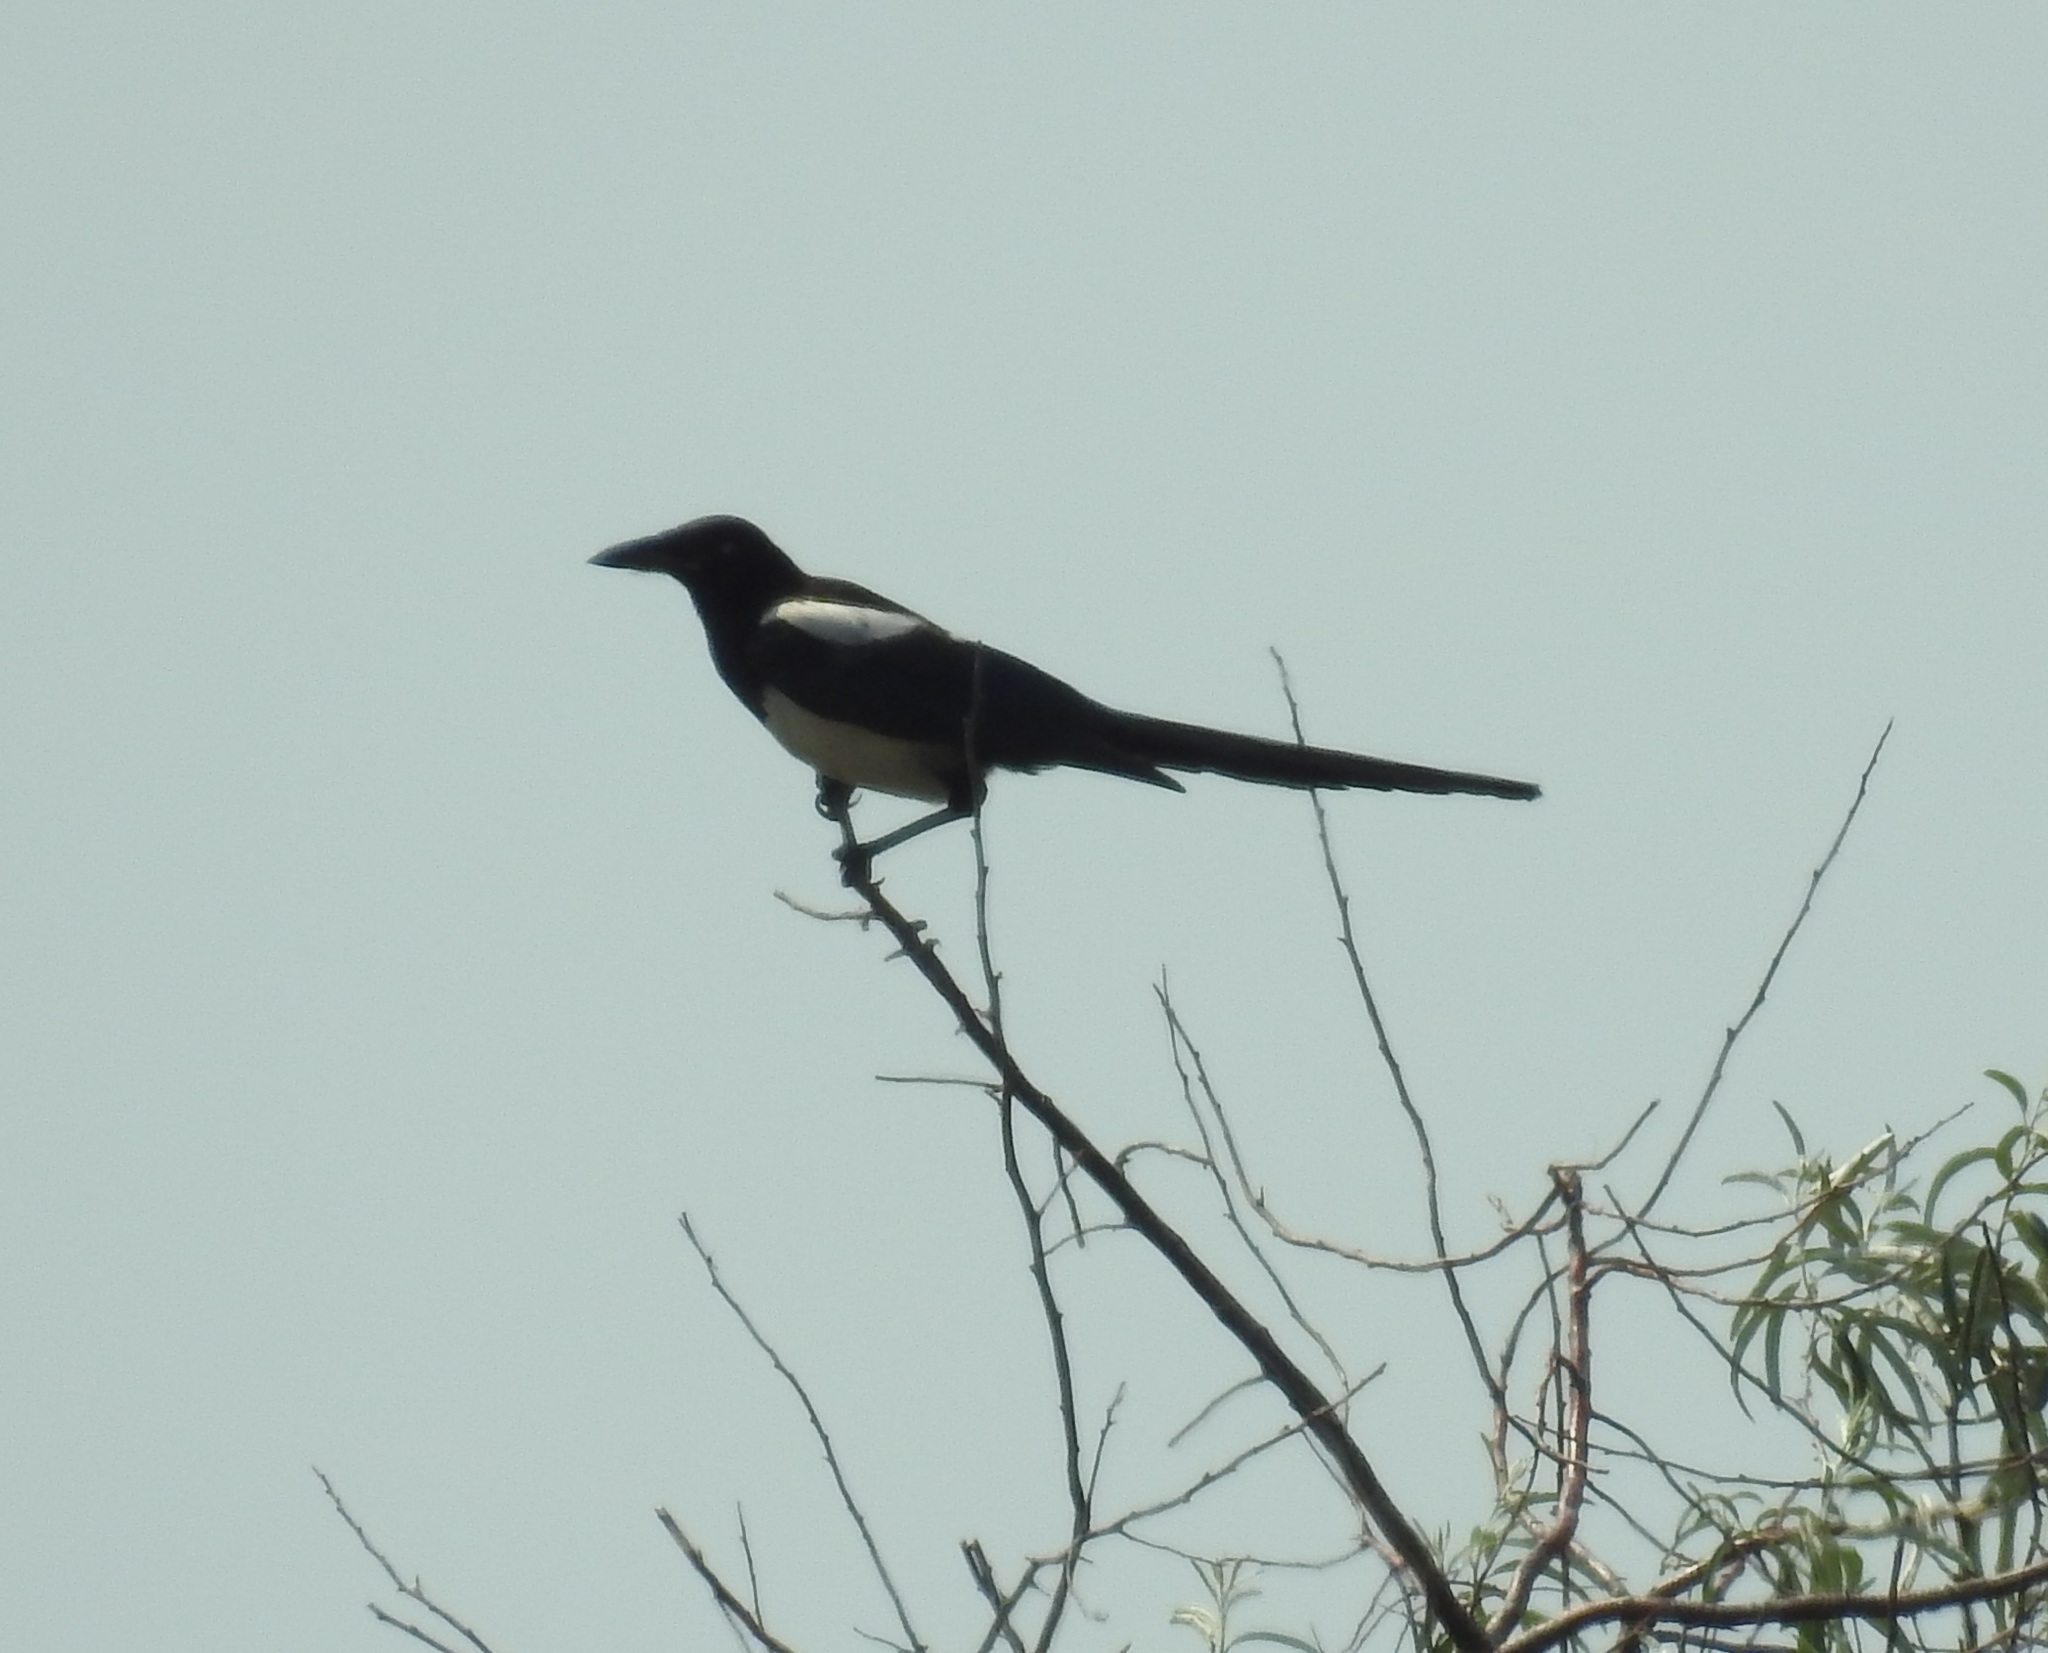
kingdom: Animalia
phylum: Chordata
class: Aves
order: Passeriformes
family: Corvidae
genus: Pica
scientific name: Pica pica
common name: Eurasian magpie
